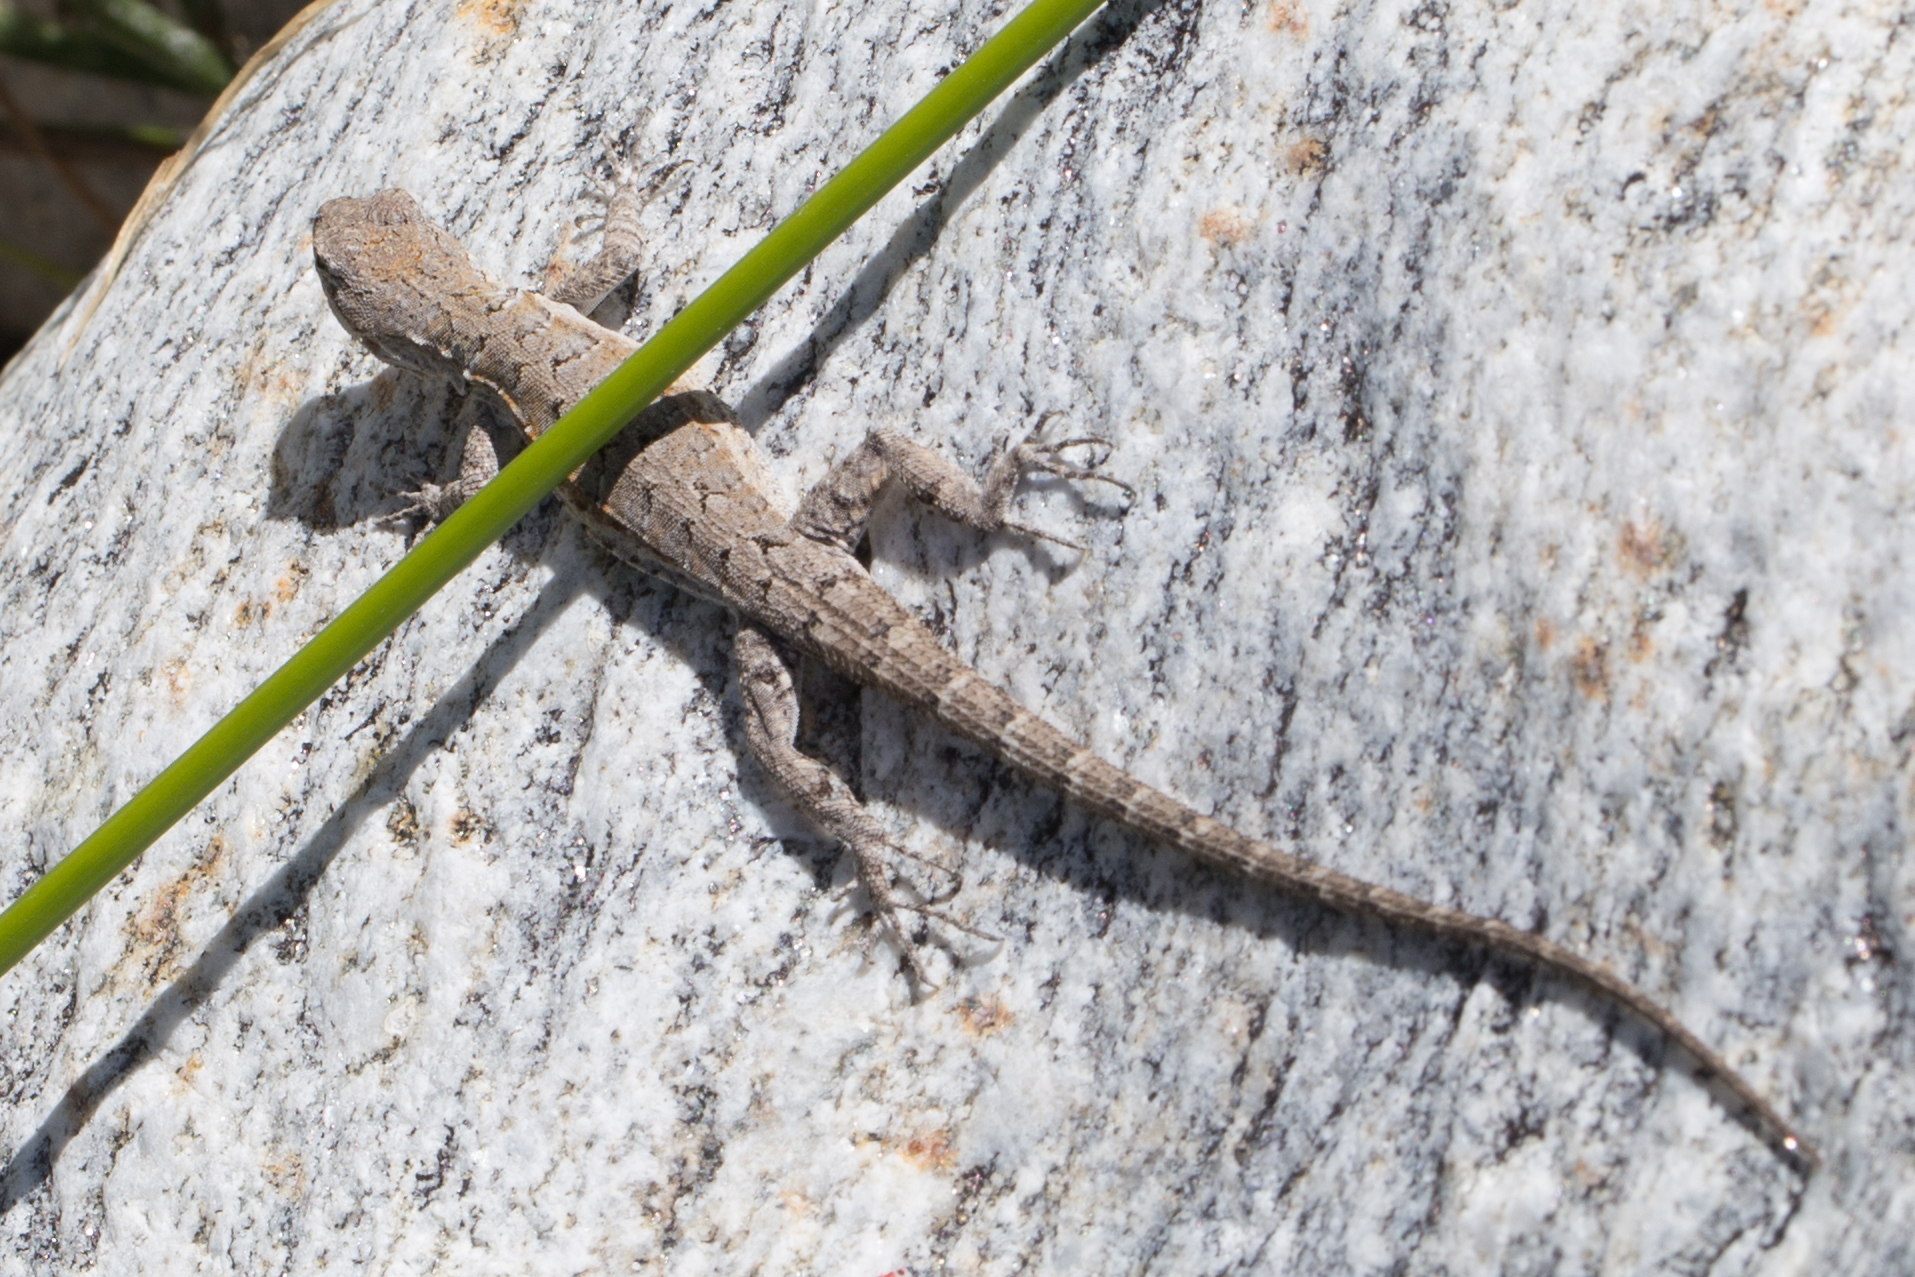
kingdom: Animalia
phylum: Chordata
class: Squamata
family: Phrynosomatidae
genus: Urosaurus
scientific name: Urosaurus nigricauda
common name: Baja california brush lizard
